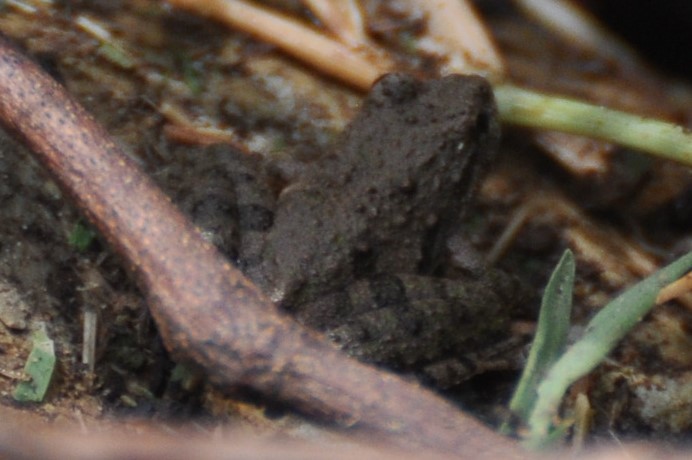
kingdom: Animalia
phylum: Chordata
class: Amphibia
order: Anura
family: Hylidae
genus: Acris
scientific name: Acris blanchardi
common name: Blanchard's cricket frog
